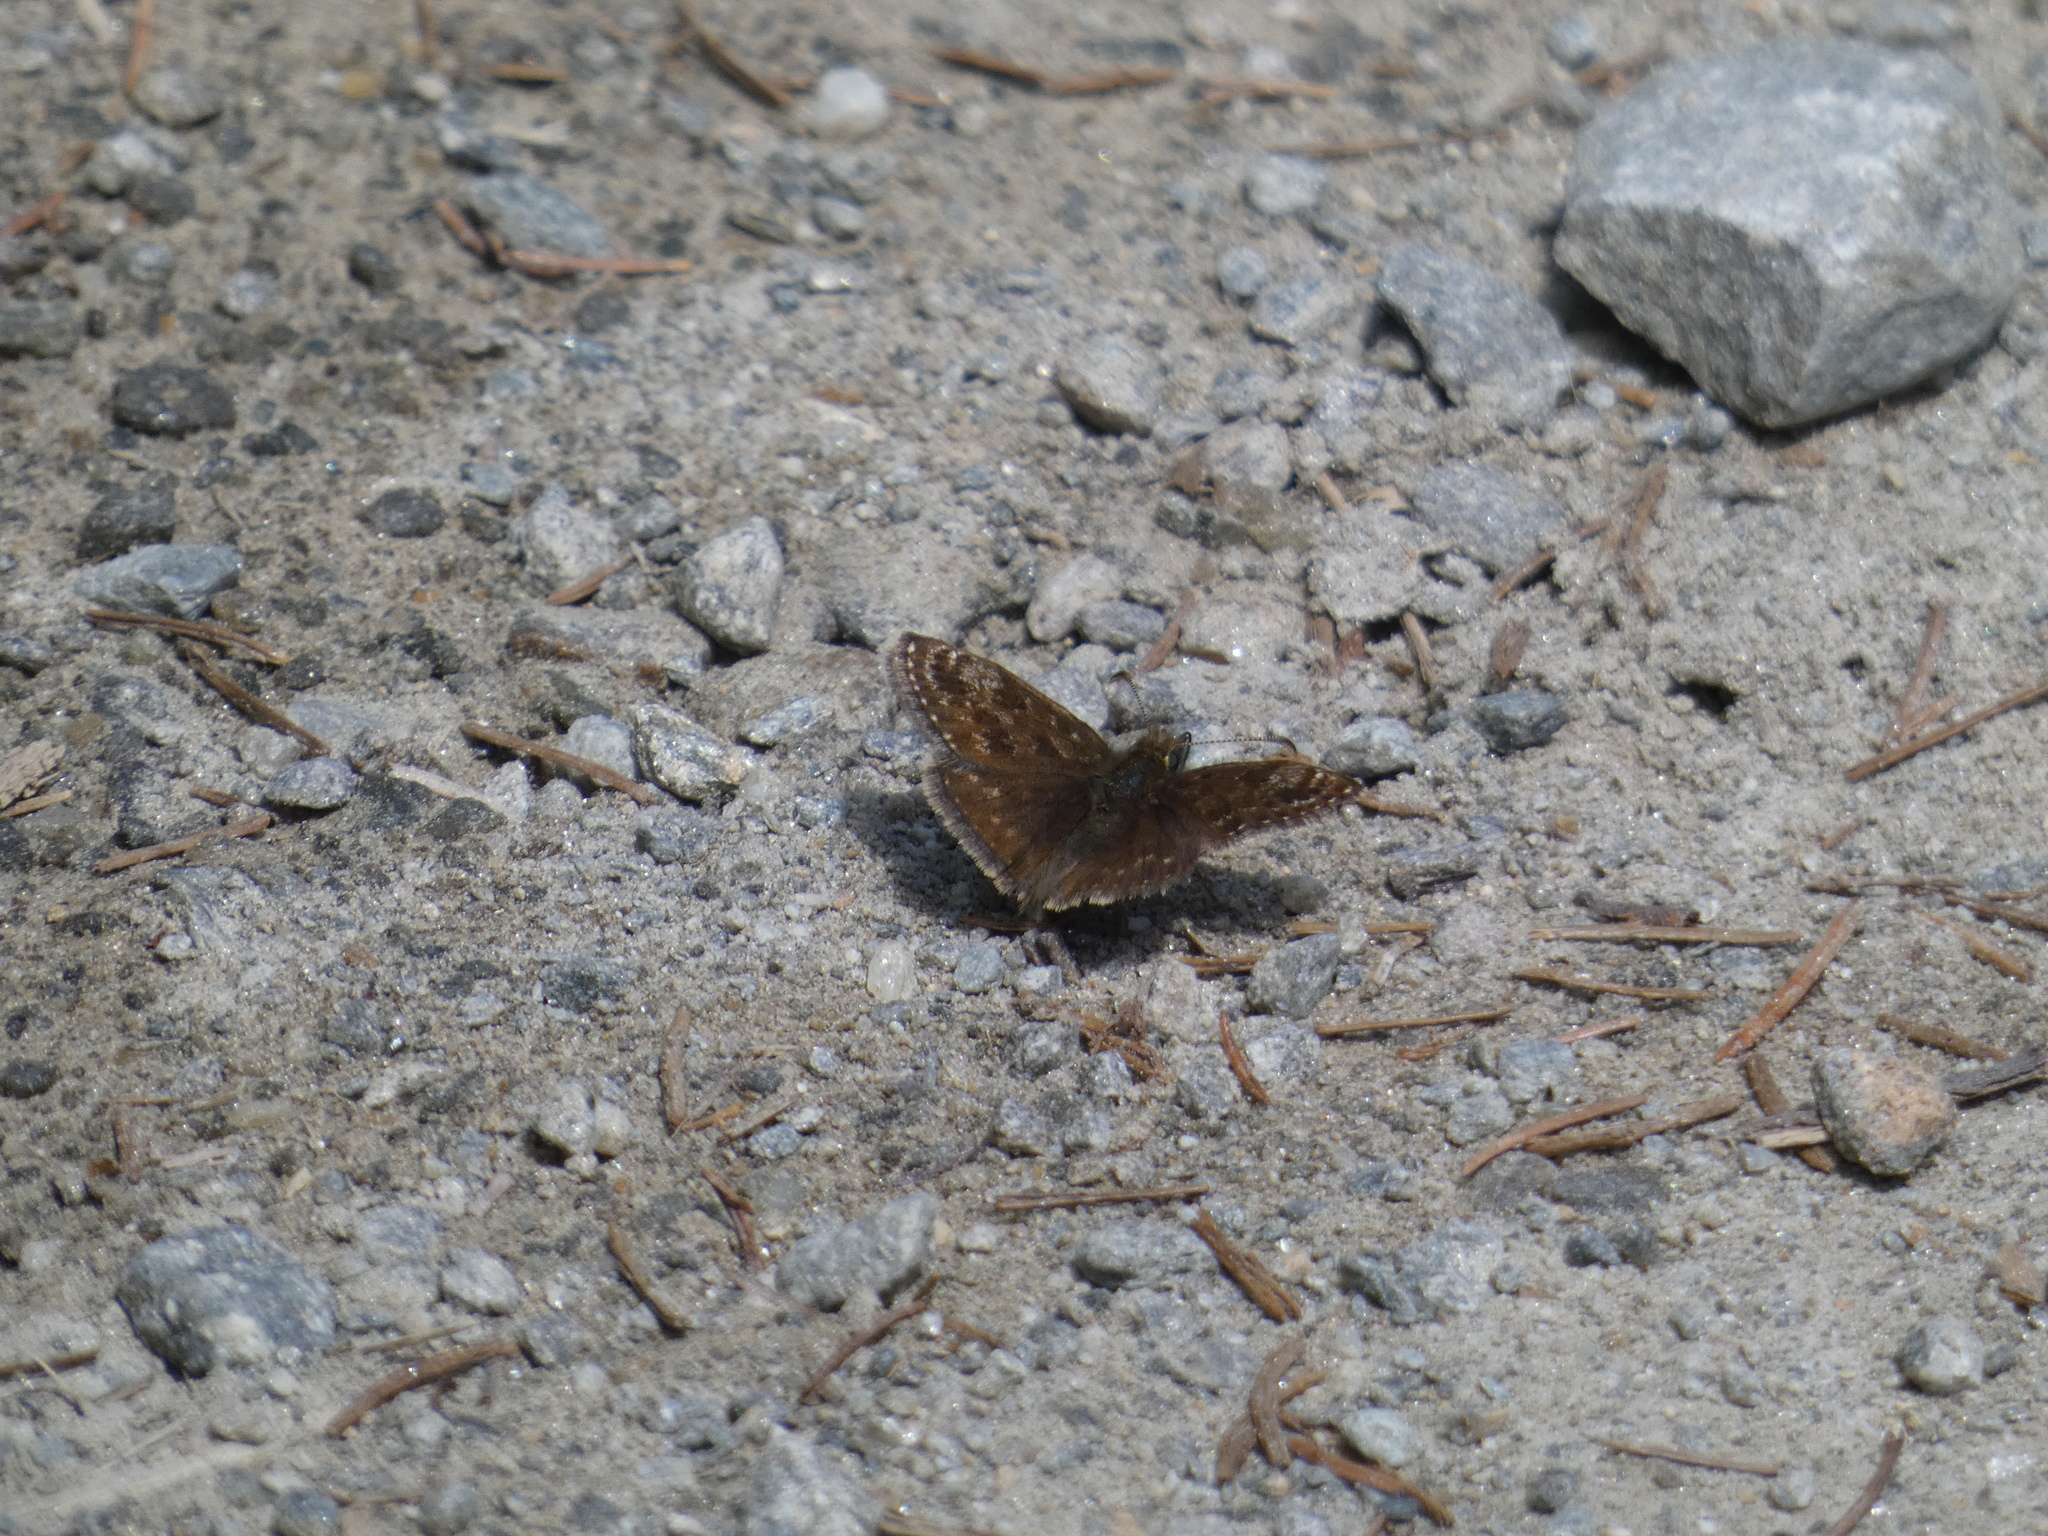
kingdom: Animalia
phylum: Arthropoda
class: Insecta
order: Lepidoptera
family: Hesperiidae
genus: Erynnis
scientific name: Erynnis tages
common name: Dingy skipper
